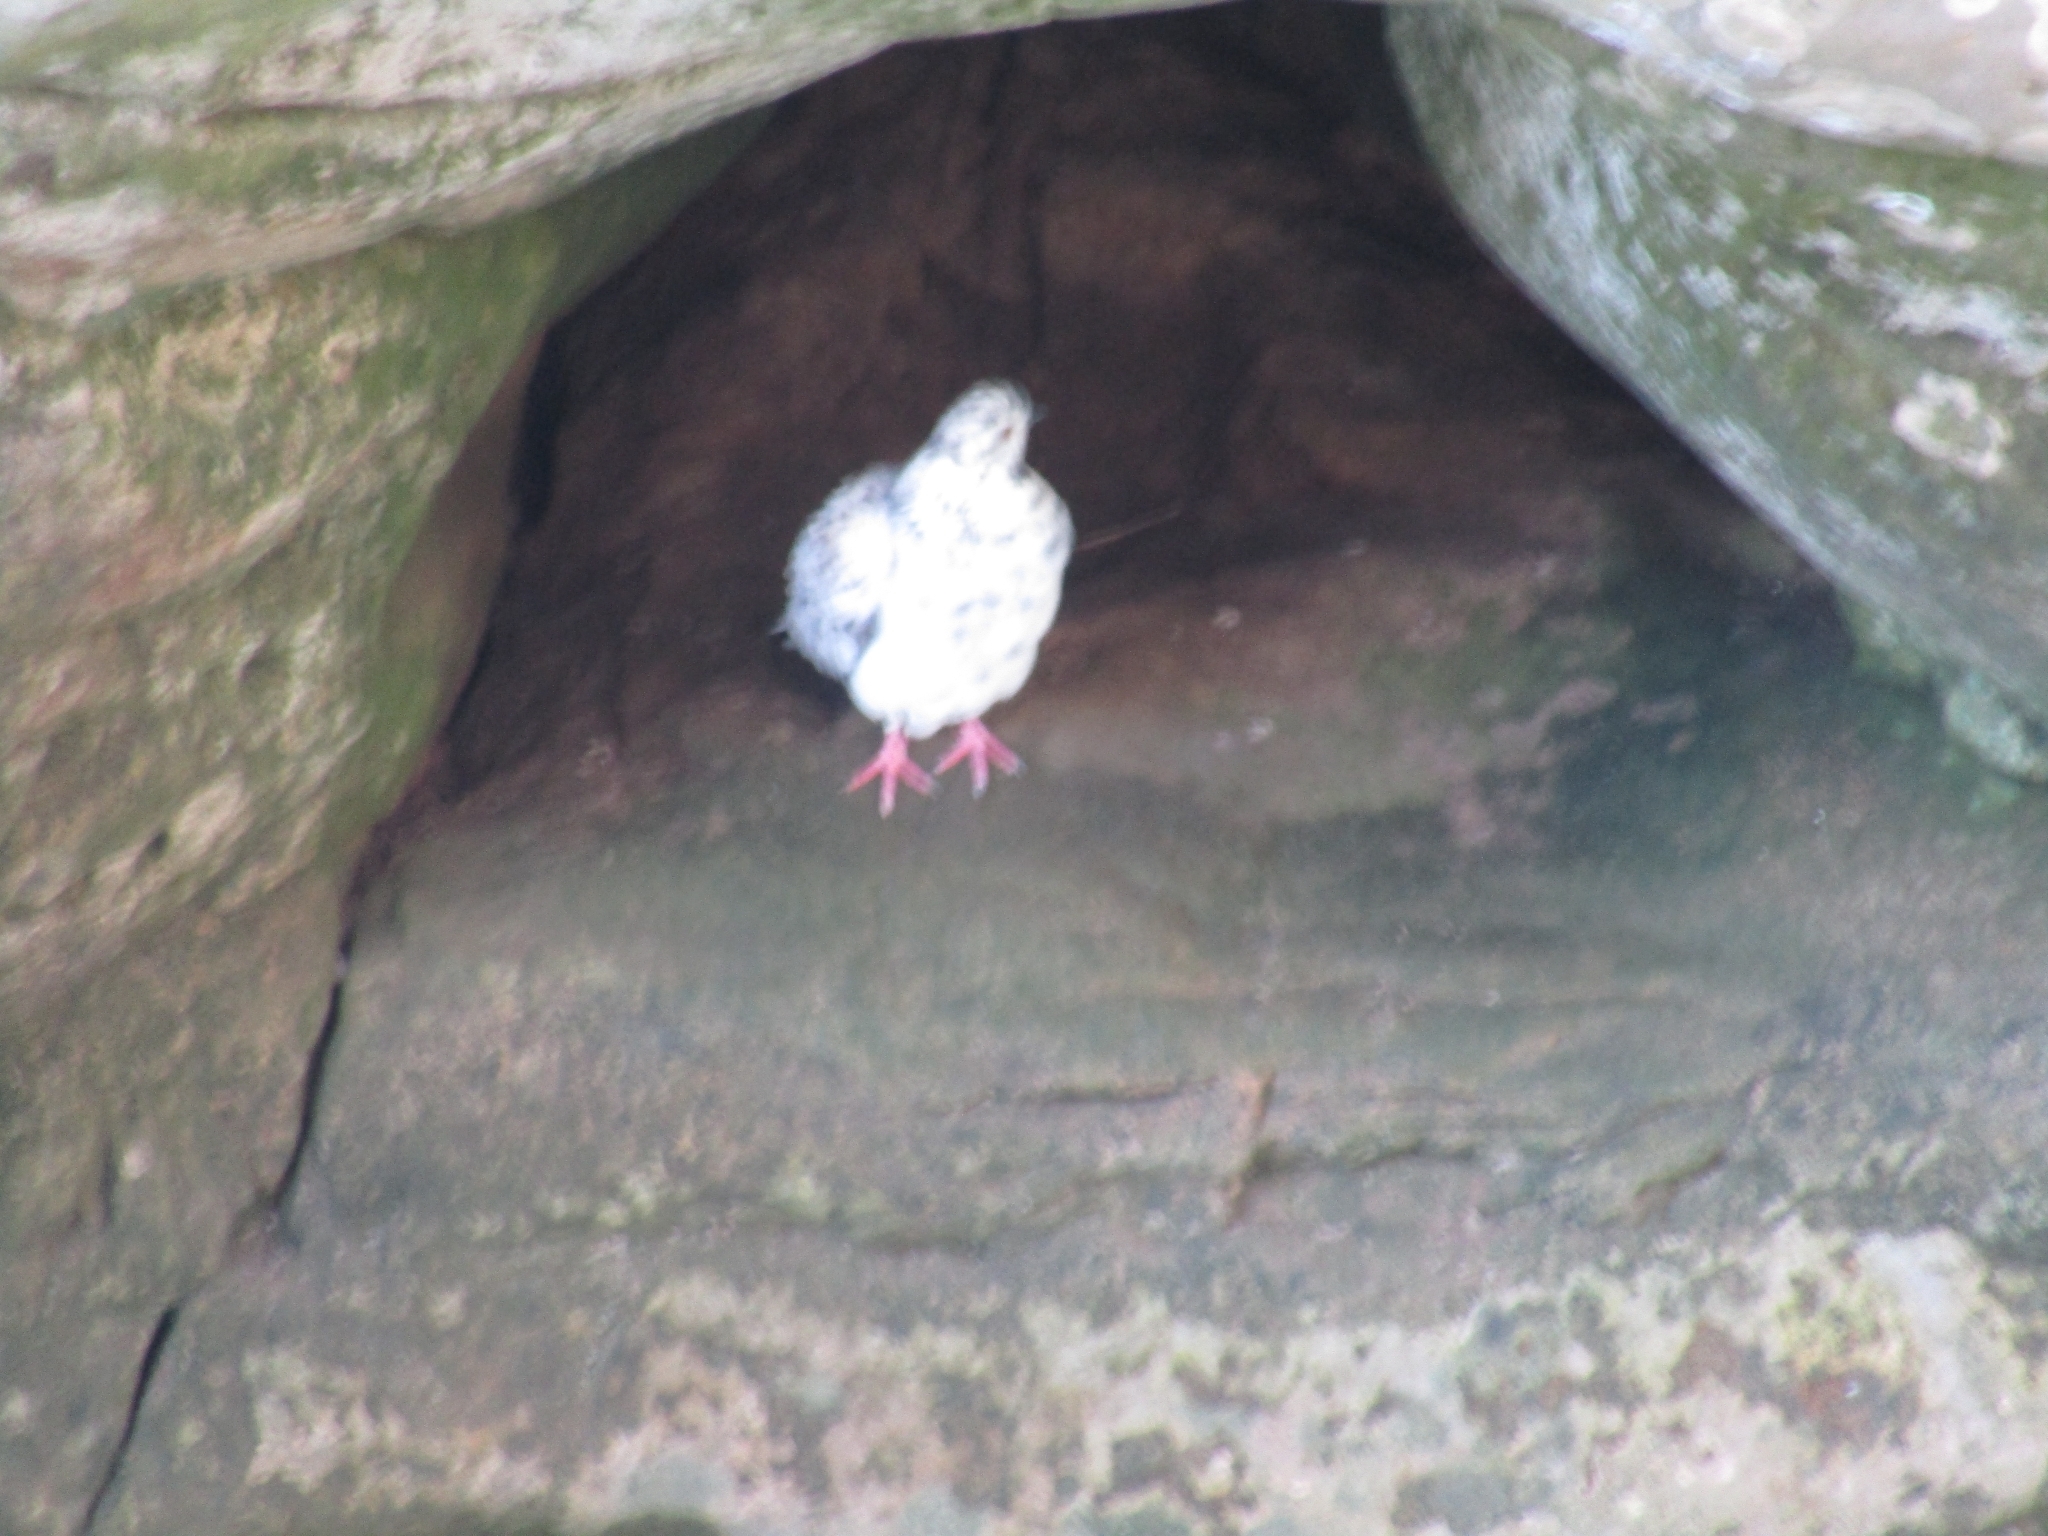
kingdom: Animalia
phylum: Chordata
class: Aves
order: Columbiformes
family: Columbidae
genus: Columba
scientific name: Columba livia
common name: Rock pigeon
